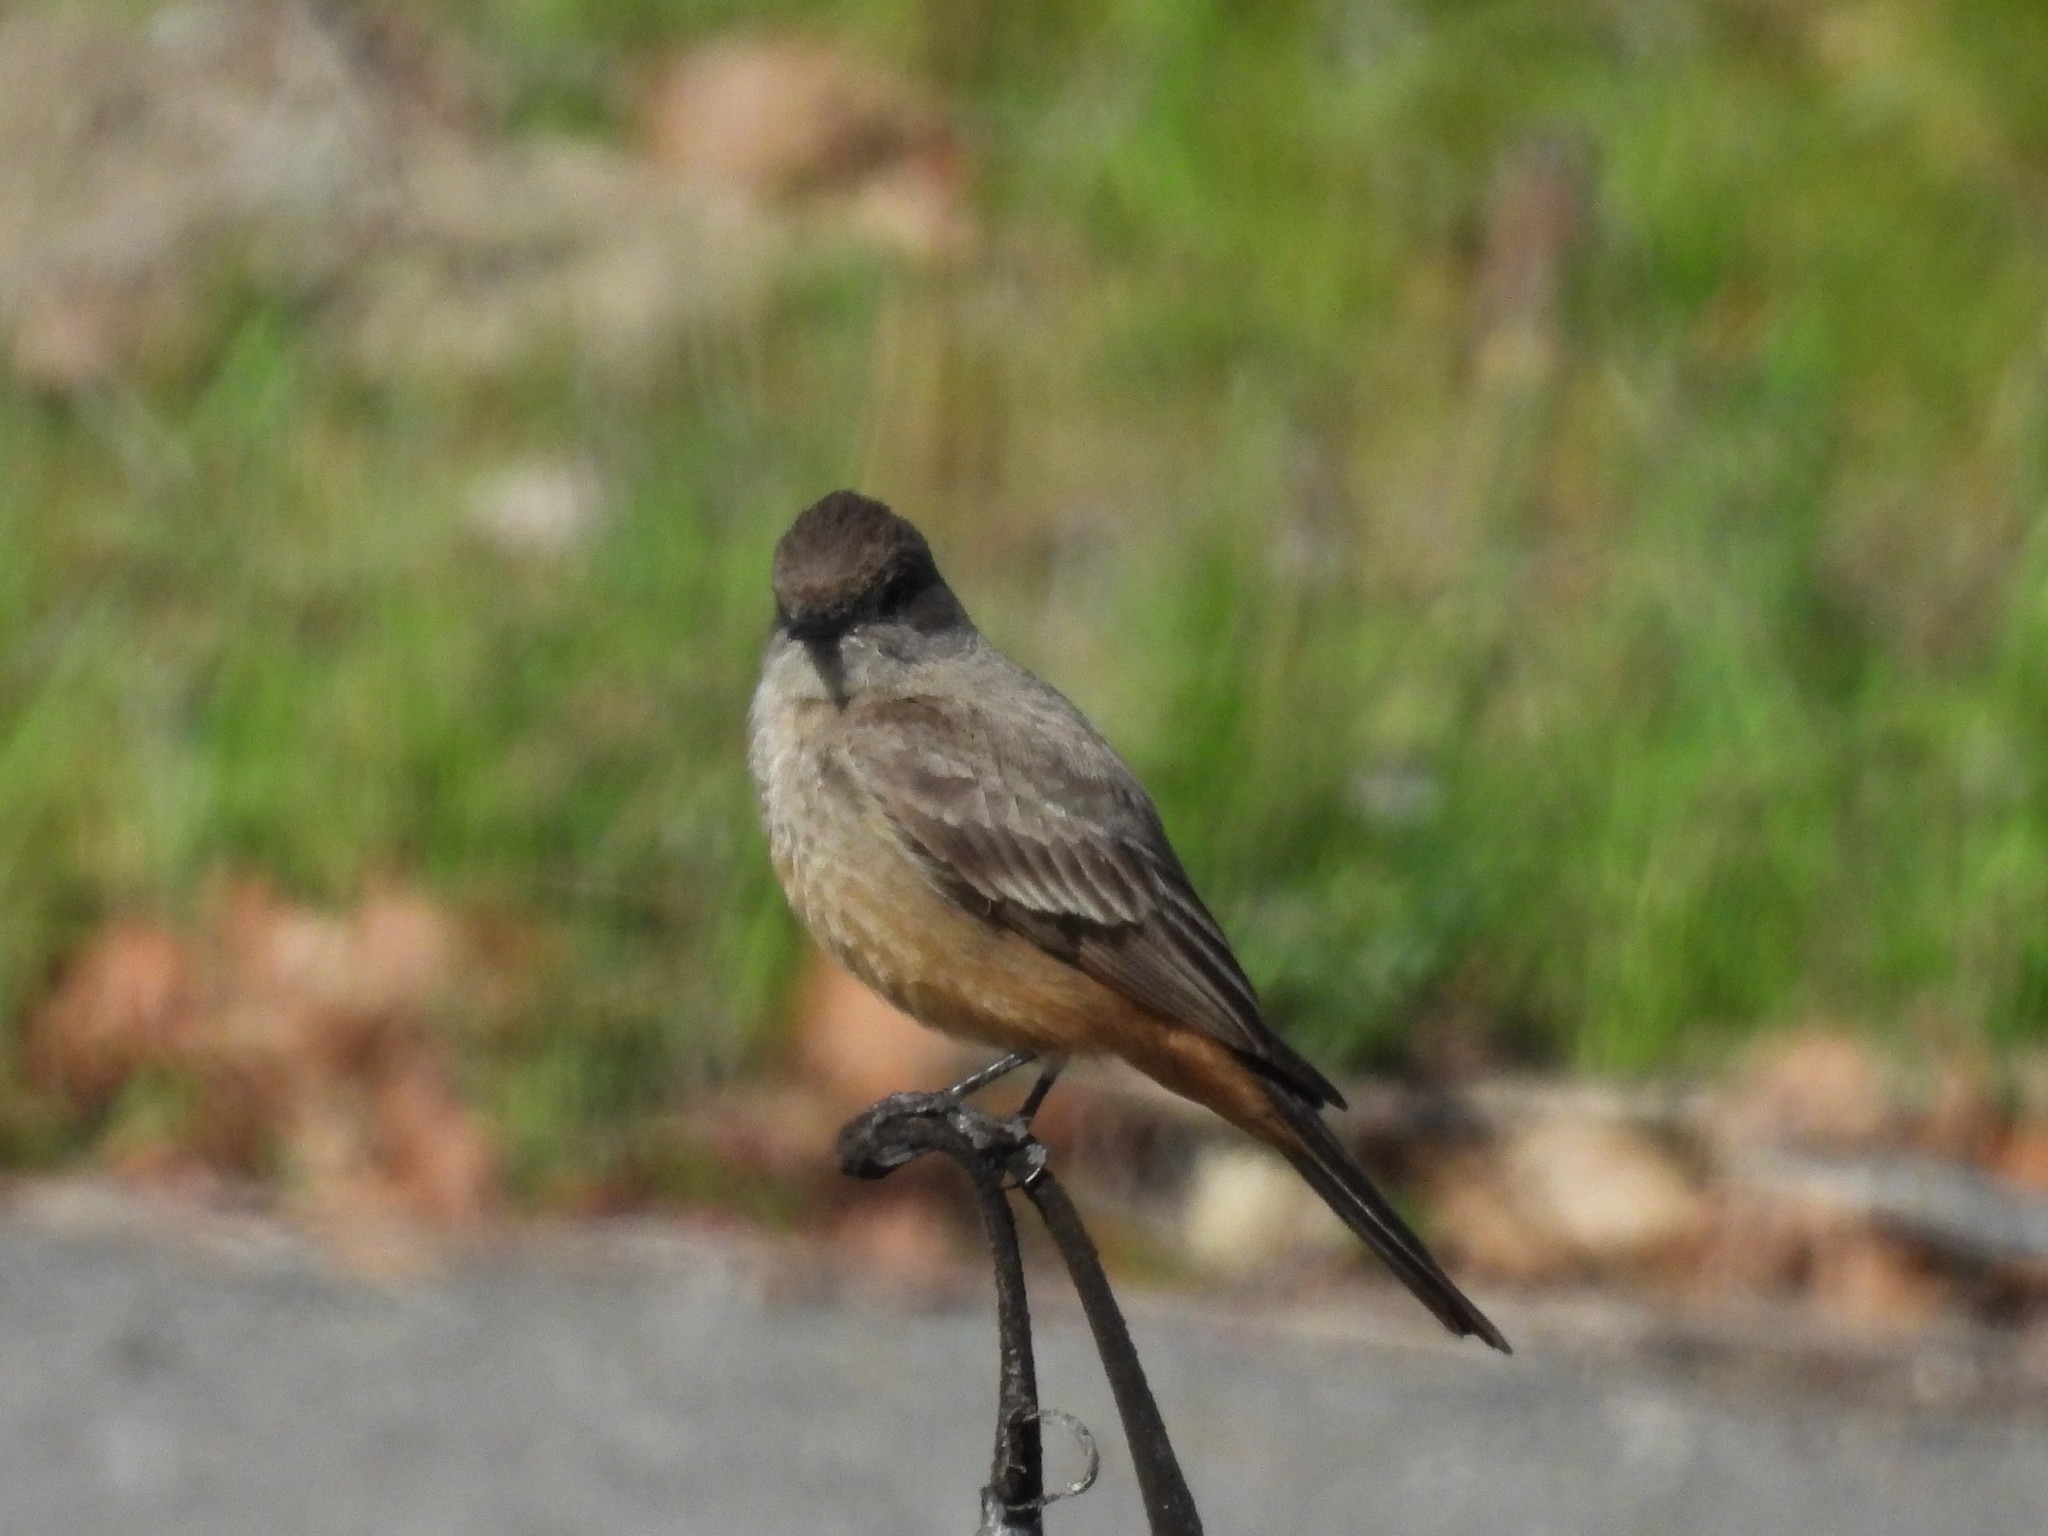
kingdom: Animalia
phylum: Chordata
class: Aves
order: Passeriformes
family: Tyrannidae
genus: Sayornis
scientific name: Sayornis saya
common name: Say's phoebe
